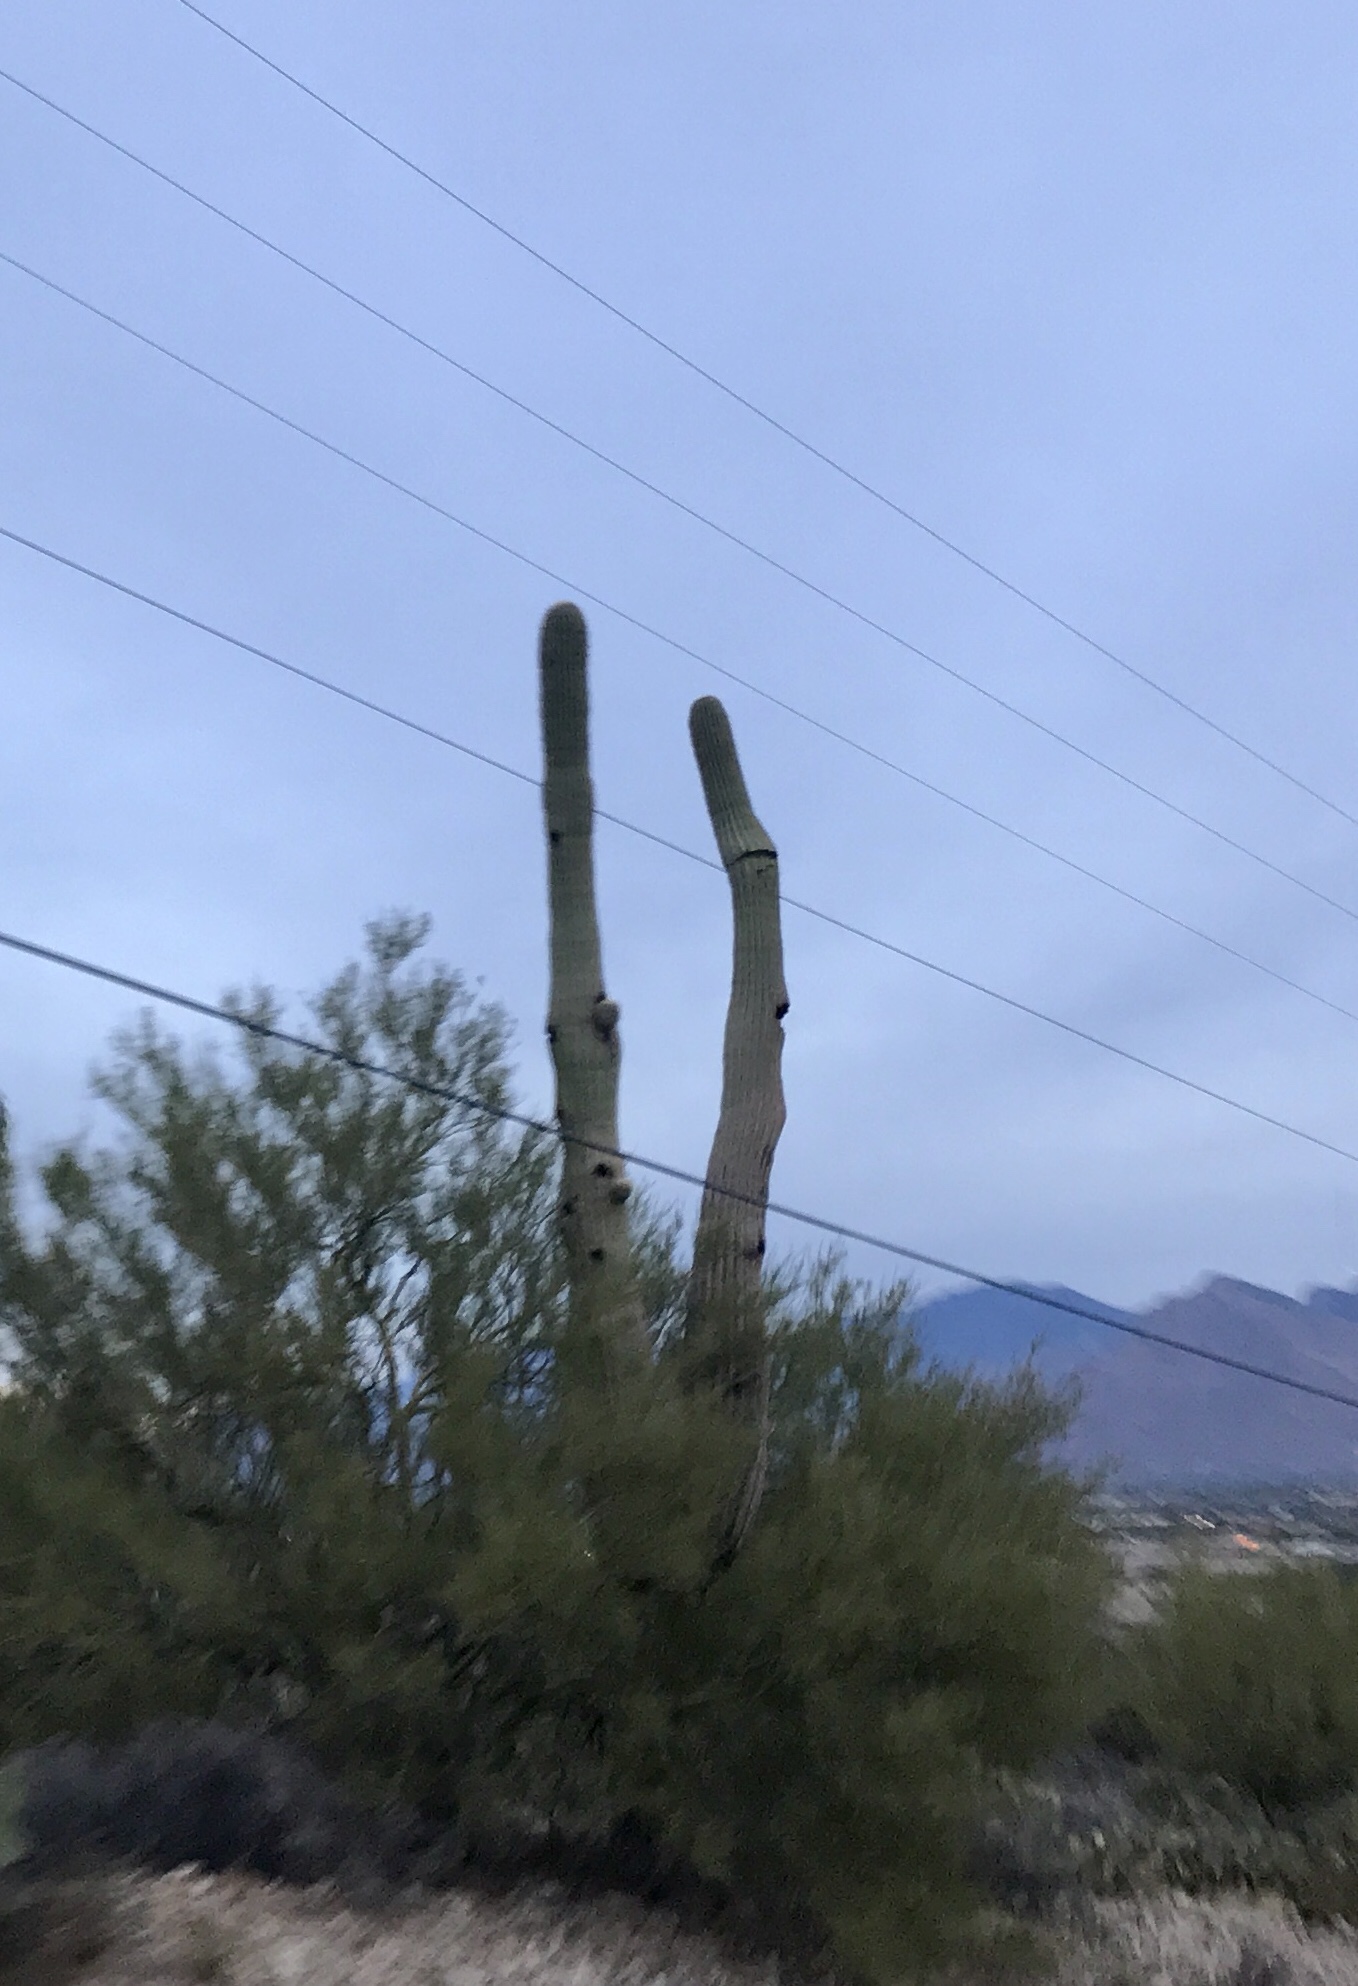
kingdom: Plantae
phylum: Tracheophyta
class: Magnoliopsida
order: Caryophyllales
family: Cactaceae
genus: Carnegiea
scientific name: Carnegiea gigantea
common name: Saguaro
